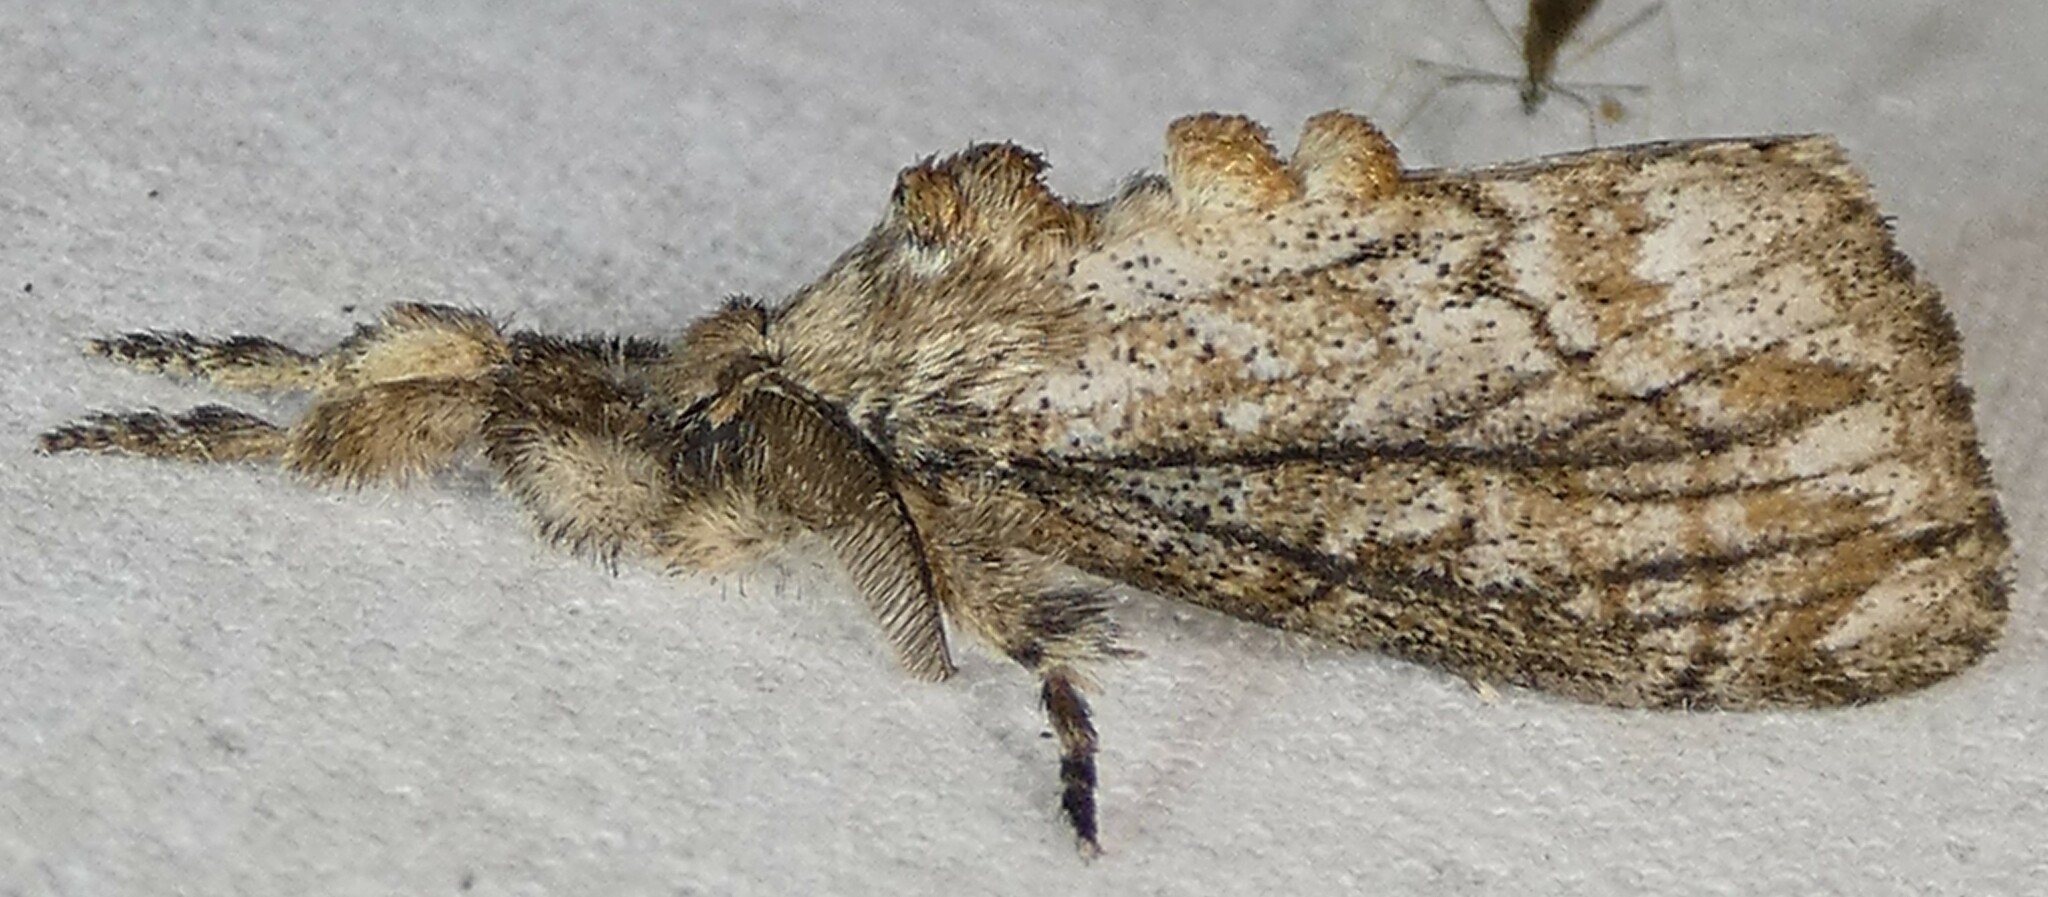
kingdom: Animalia
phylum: Arthropoda
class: Insecta
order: Lepidoptera
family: Erebidae
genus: Dasychira
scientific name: Dasychira atrivenosa
